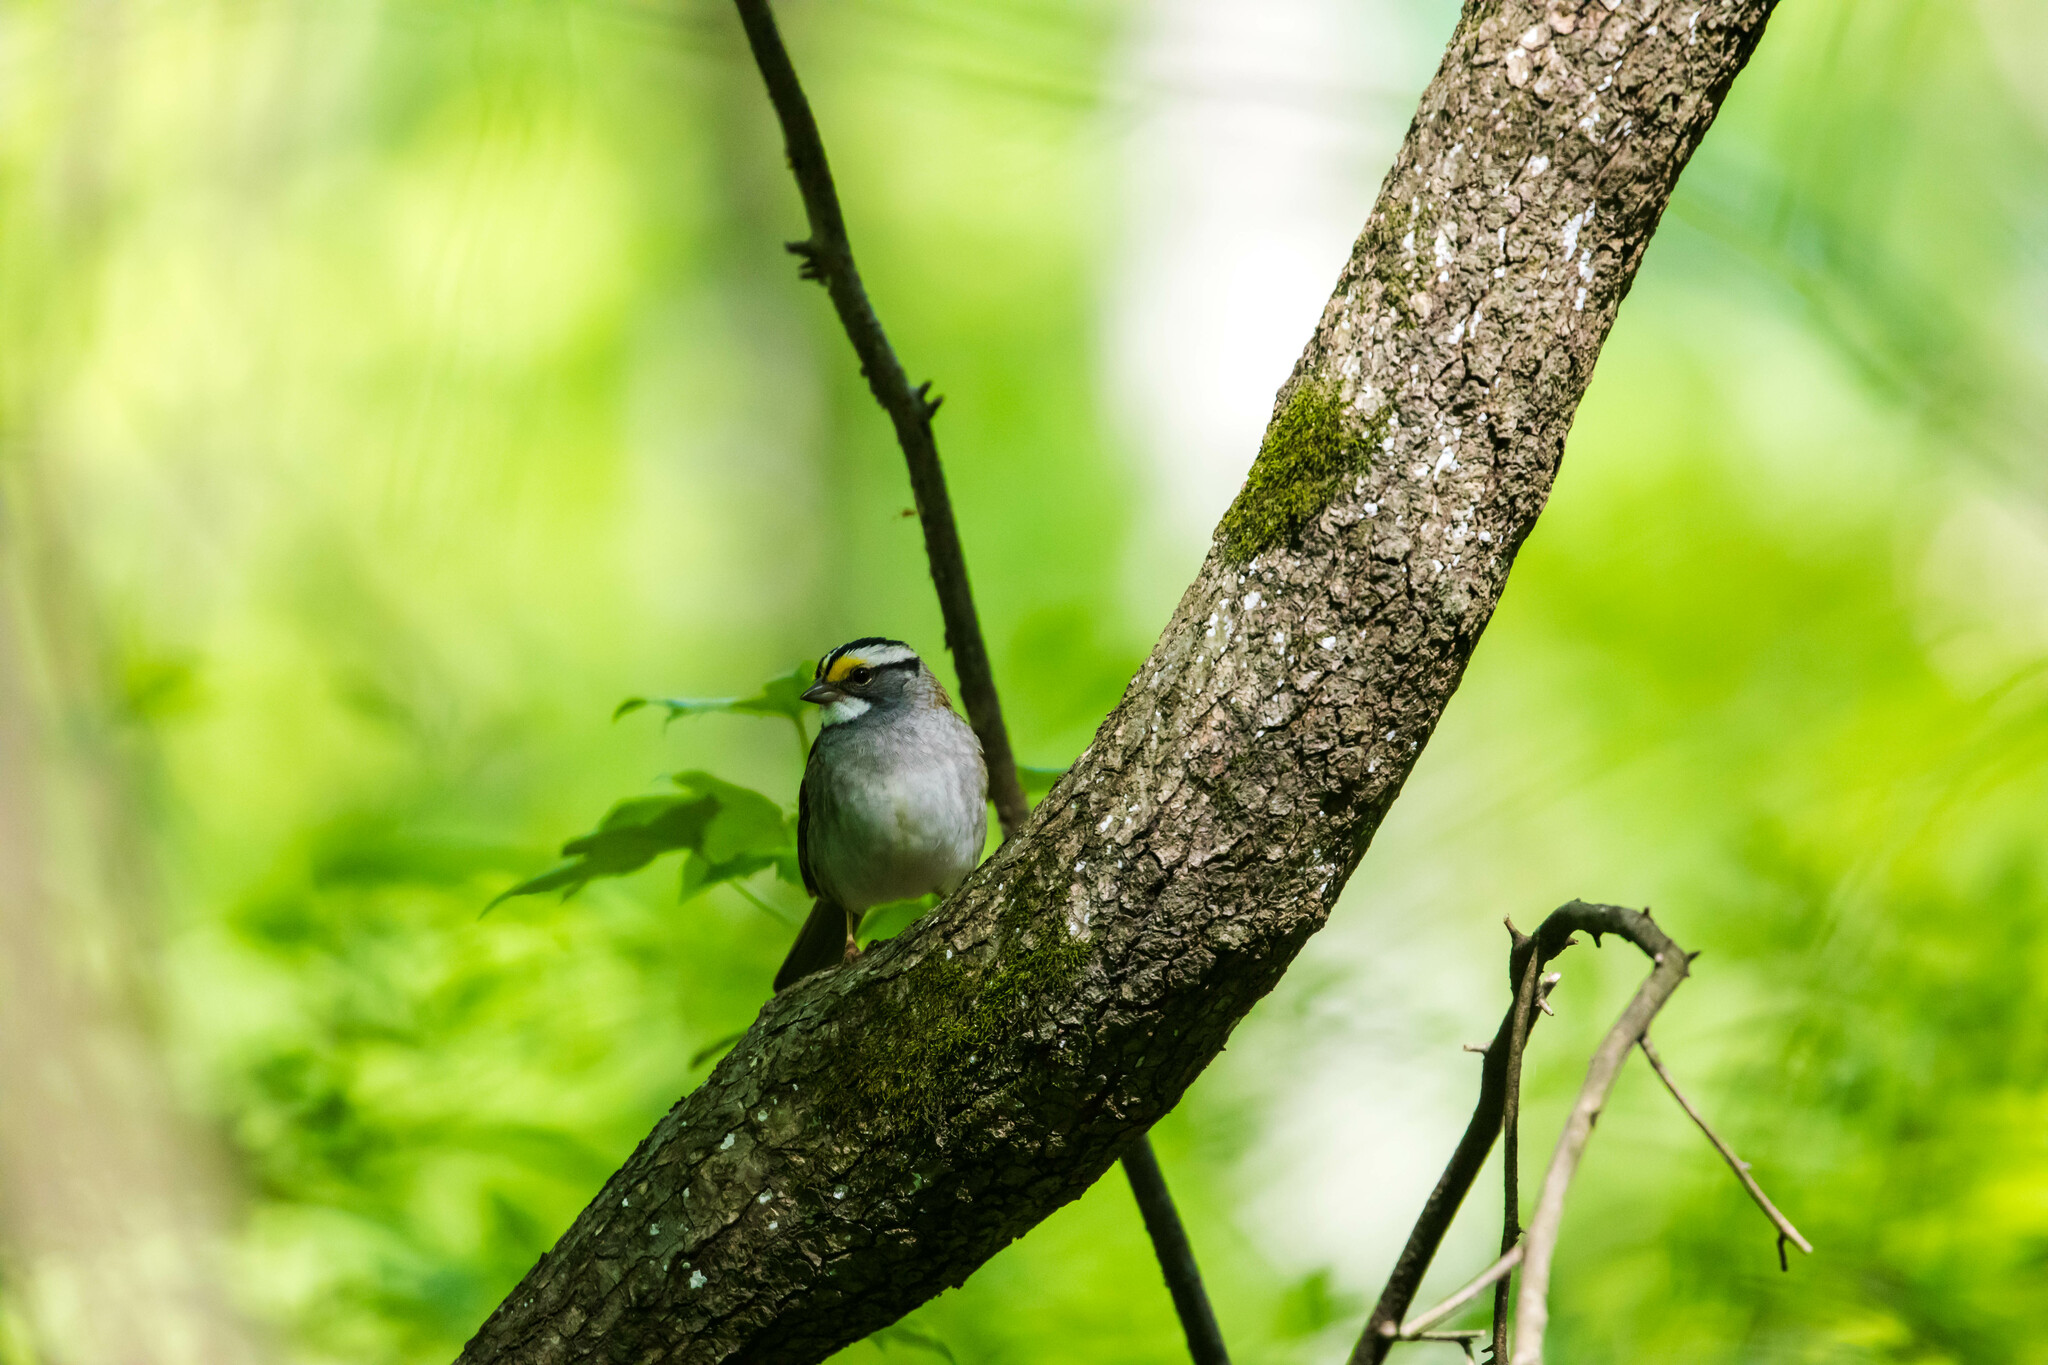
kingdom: Animalia
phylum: Chordata
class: Aves
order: Passeriformes
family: Passerellidae
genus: Zonotrichia
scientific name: Zonotrichia albicollis
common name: White-throated sparrow
